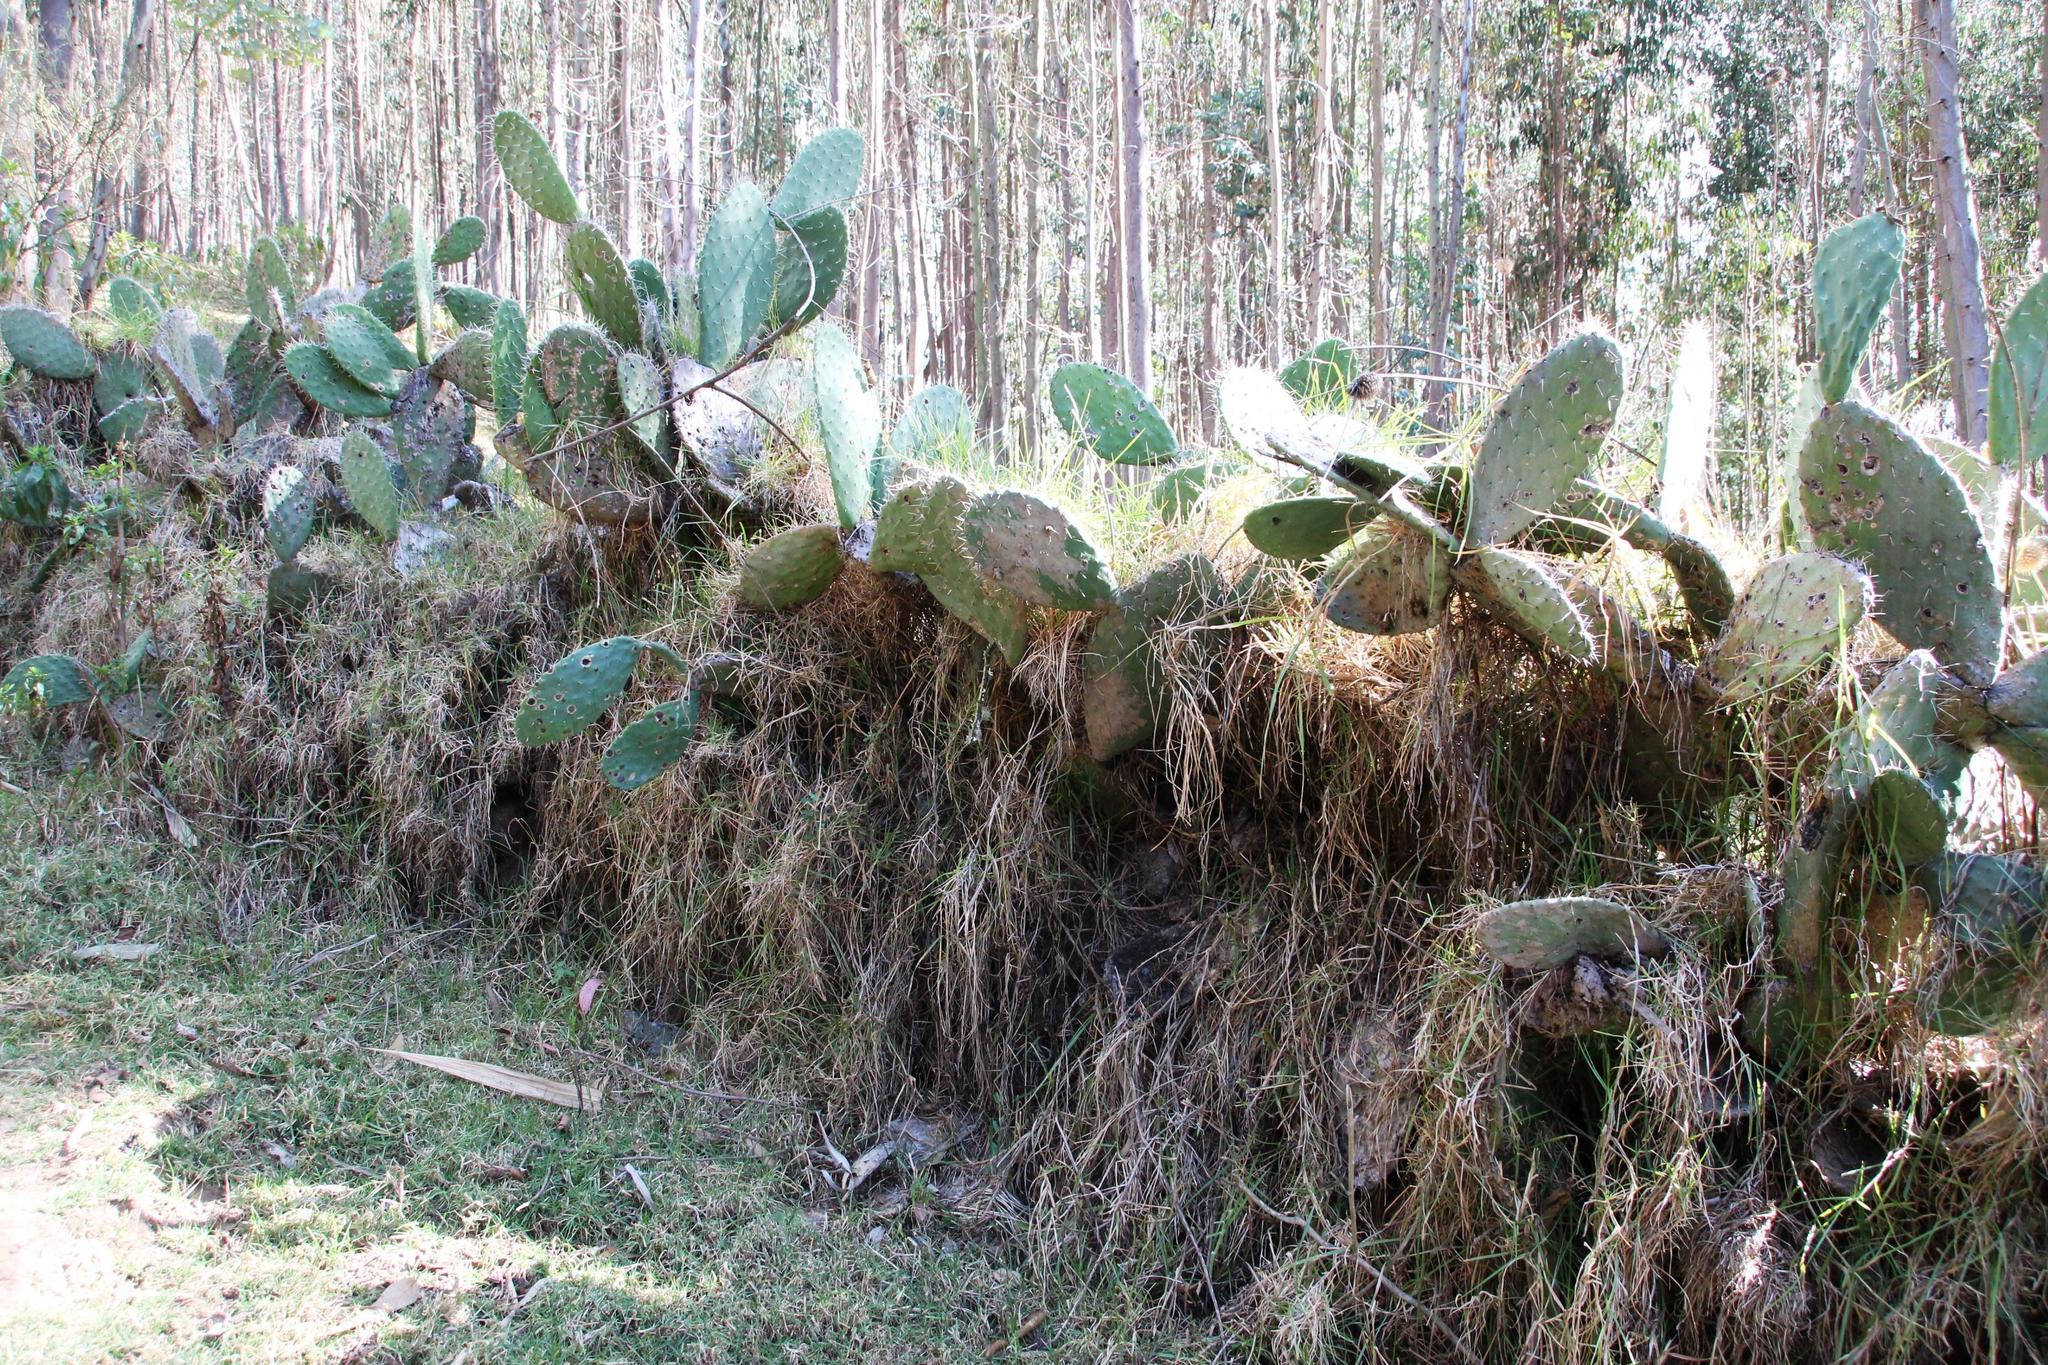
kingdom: Plantae
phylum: Tracheophyta
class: Magnoliopsida
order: Caryophyllales
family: Cactaceae
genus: Opuntia
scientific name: Opuntia ficus-indica
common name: Barbary fig
